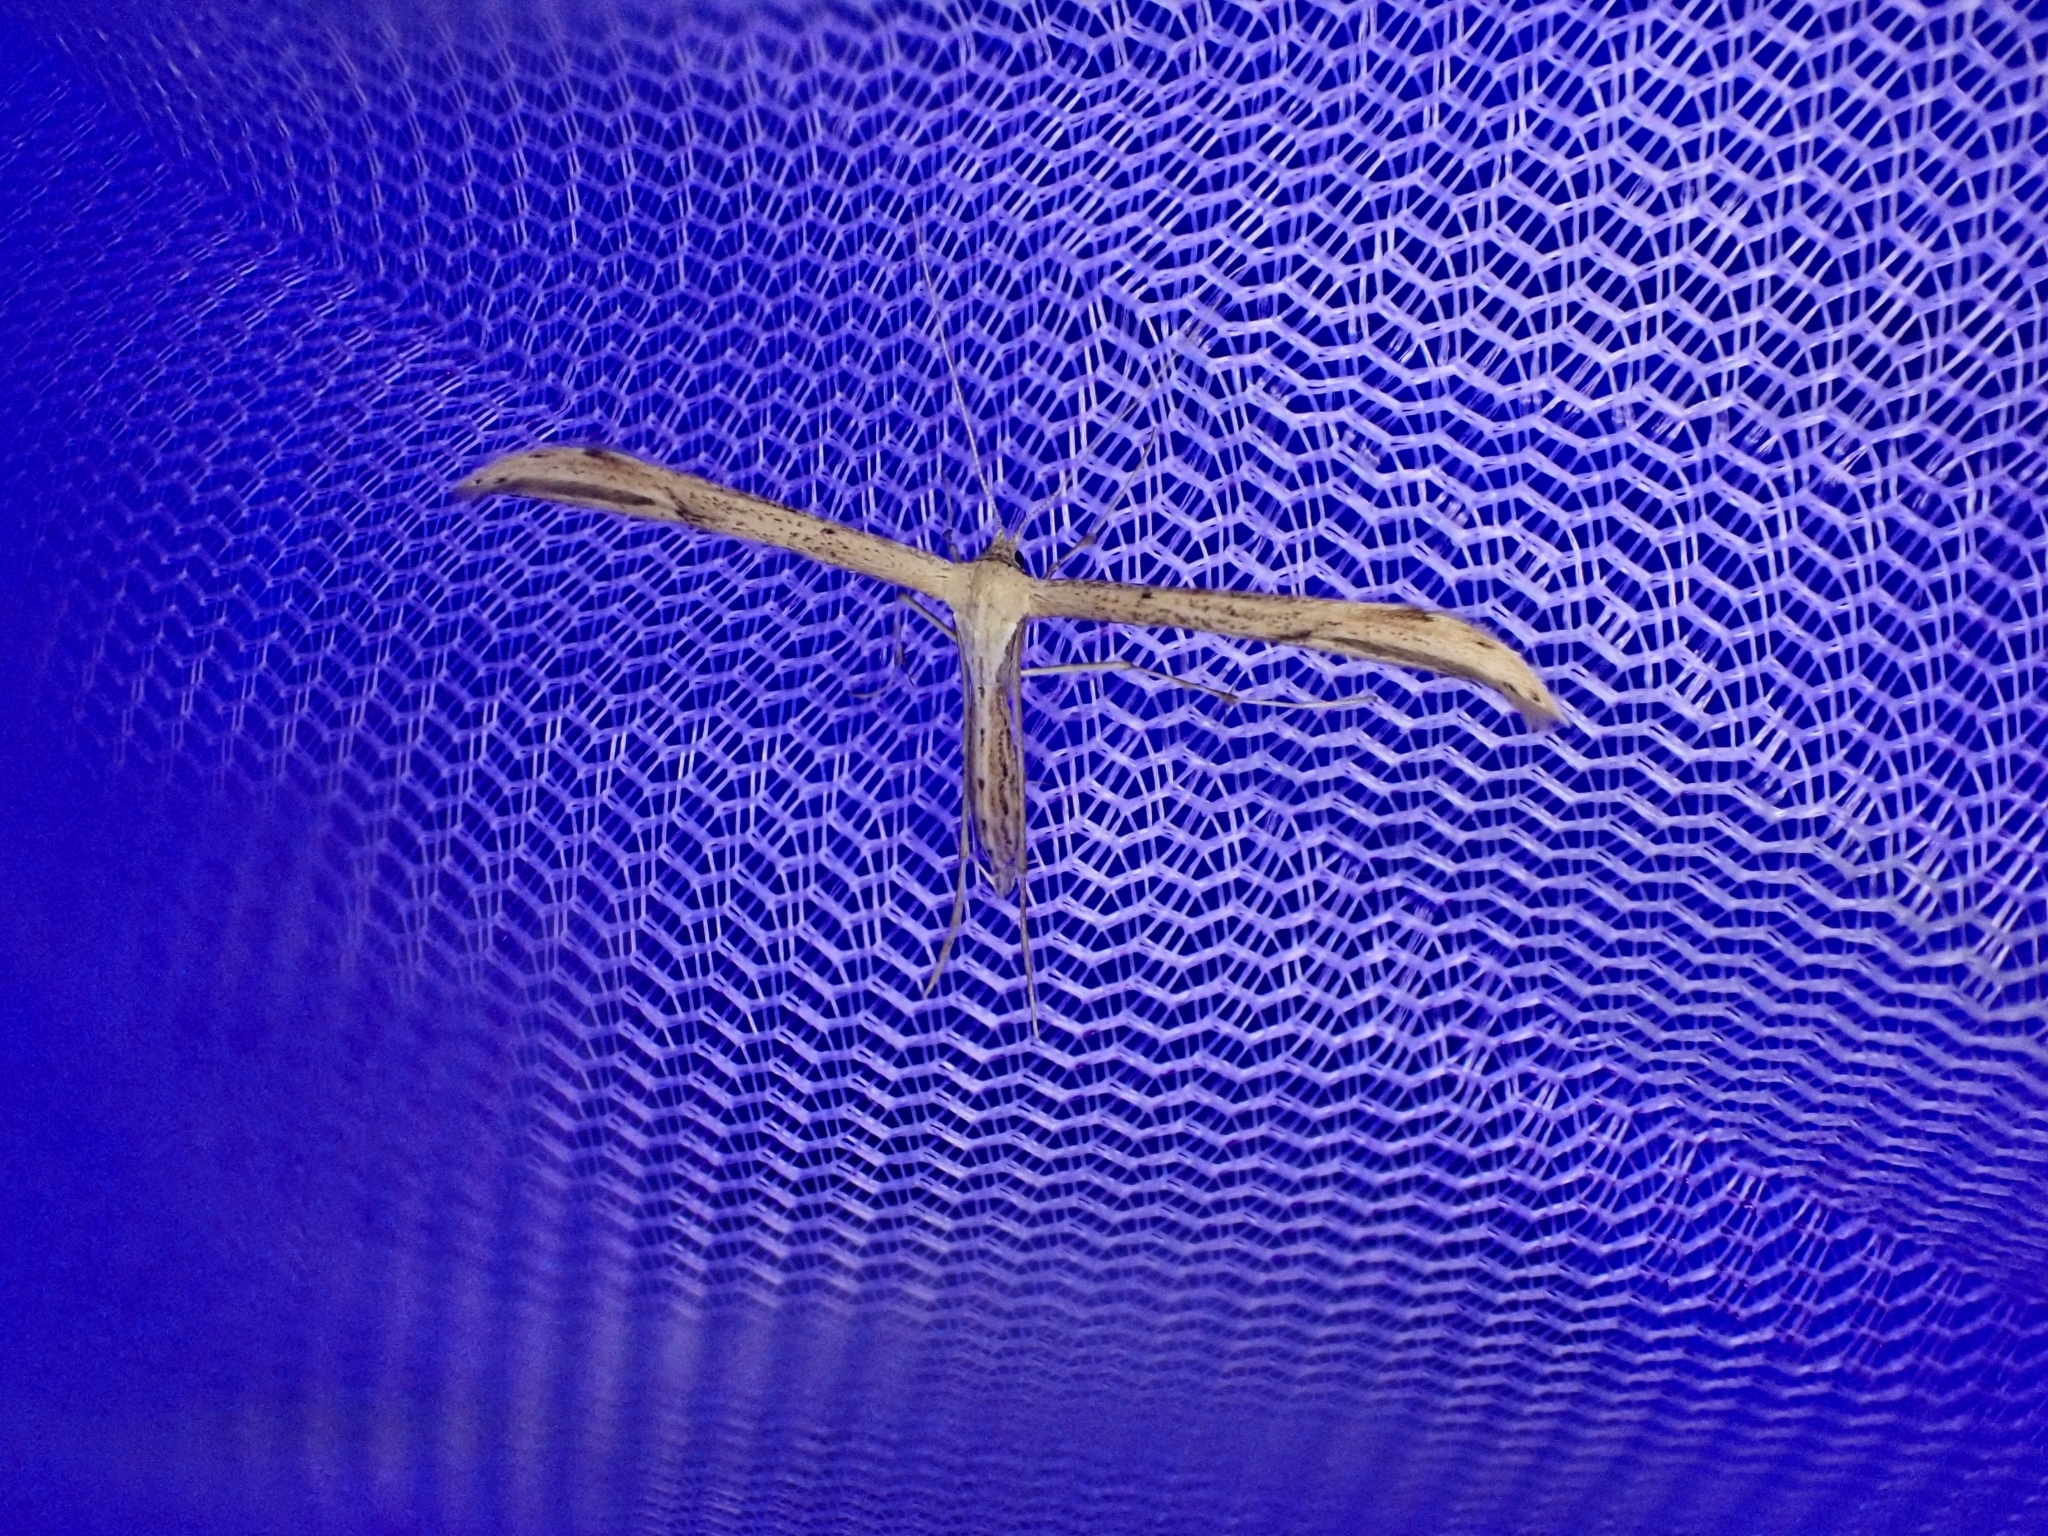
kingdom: Animalia
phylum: Arthropoda
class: Insecta
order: Lepidoptera
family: Pterophoridae
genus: Emmelina
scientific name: Emmelina monodactyla
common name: Common plume
